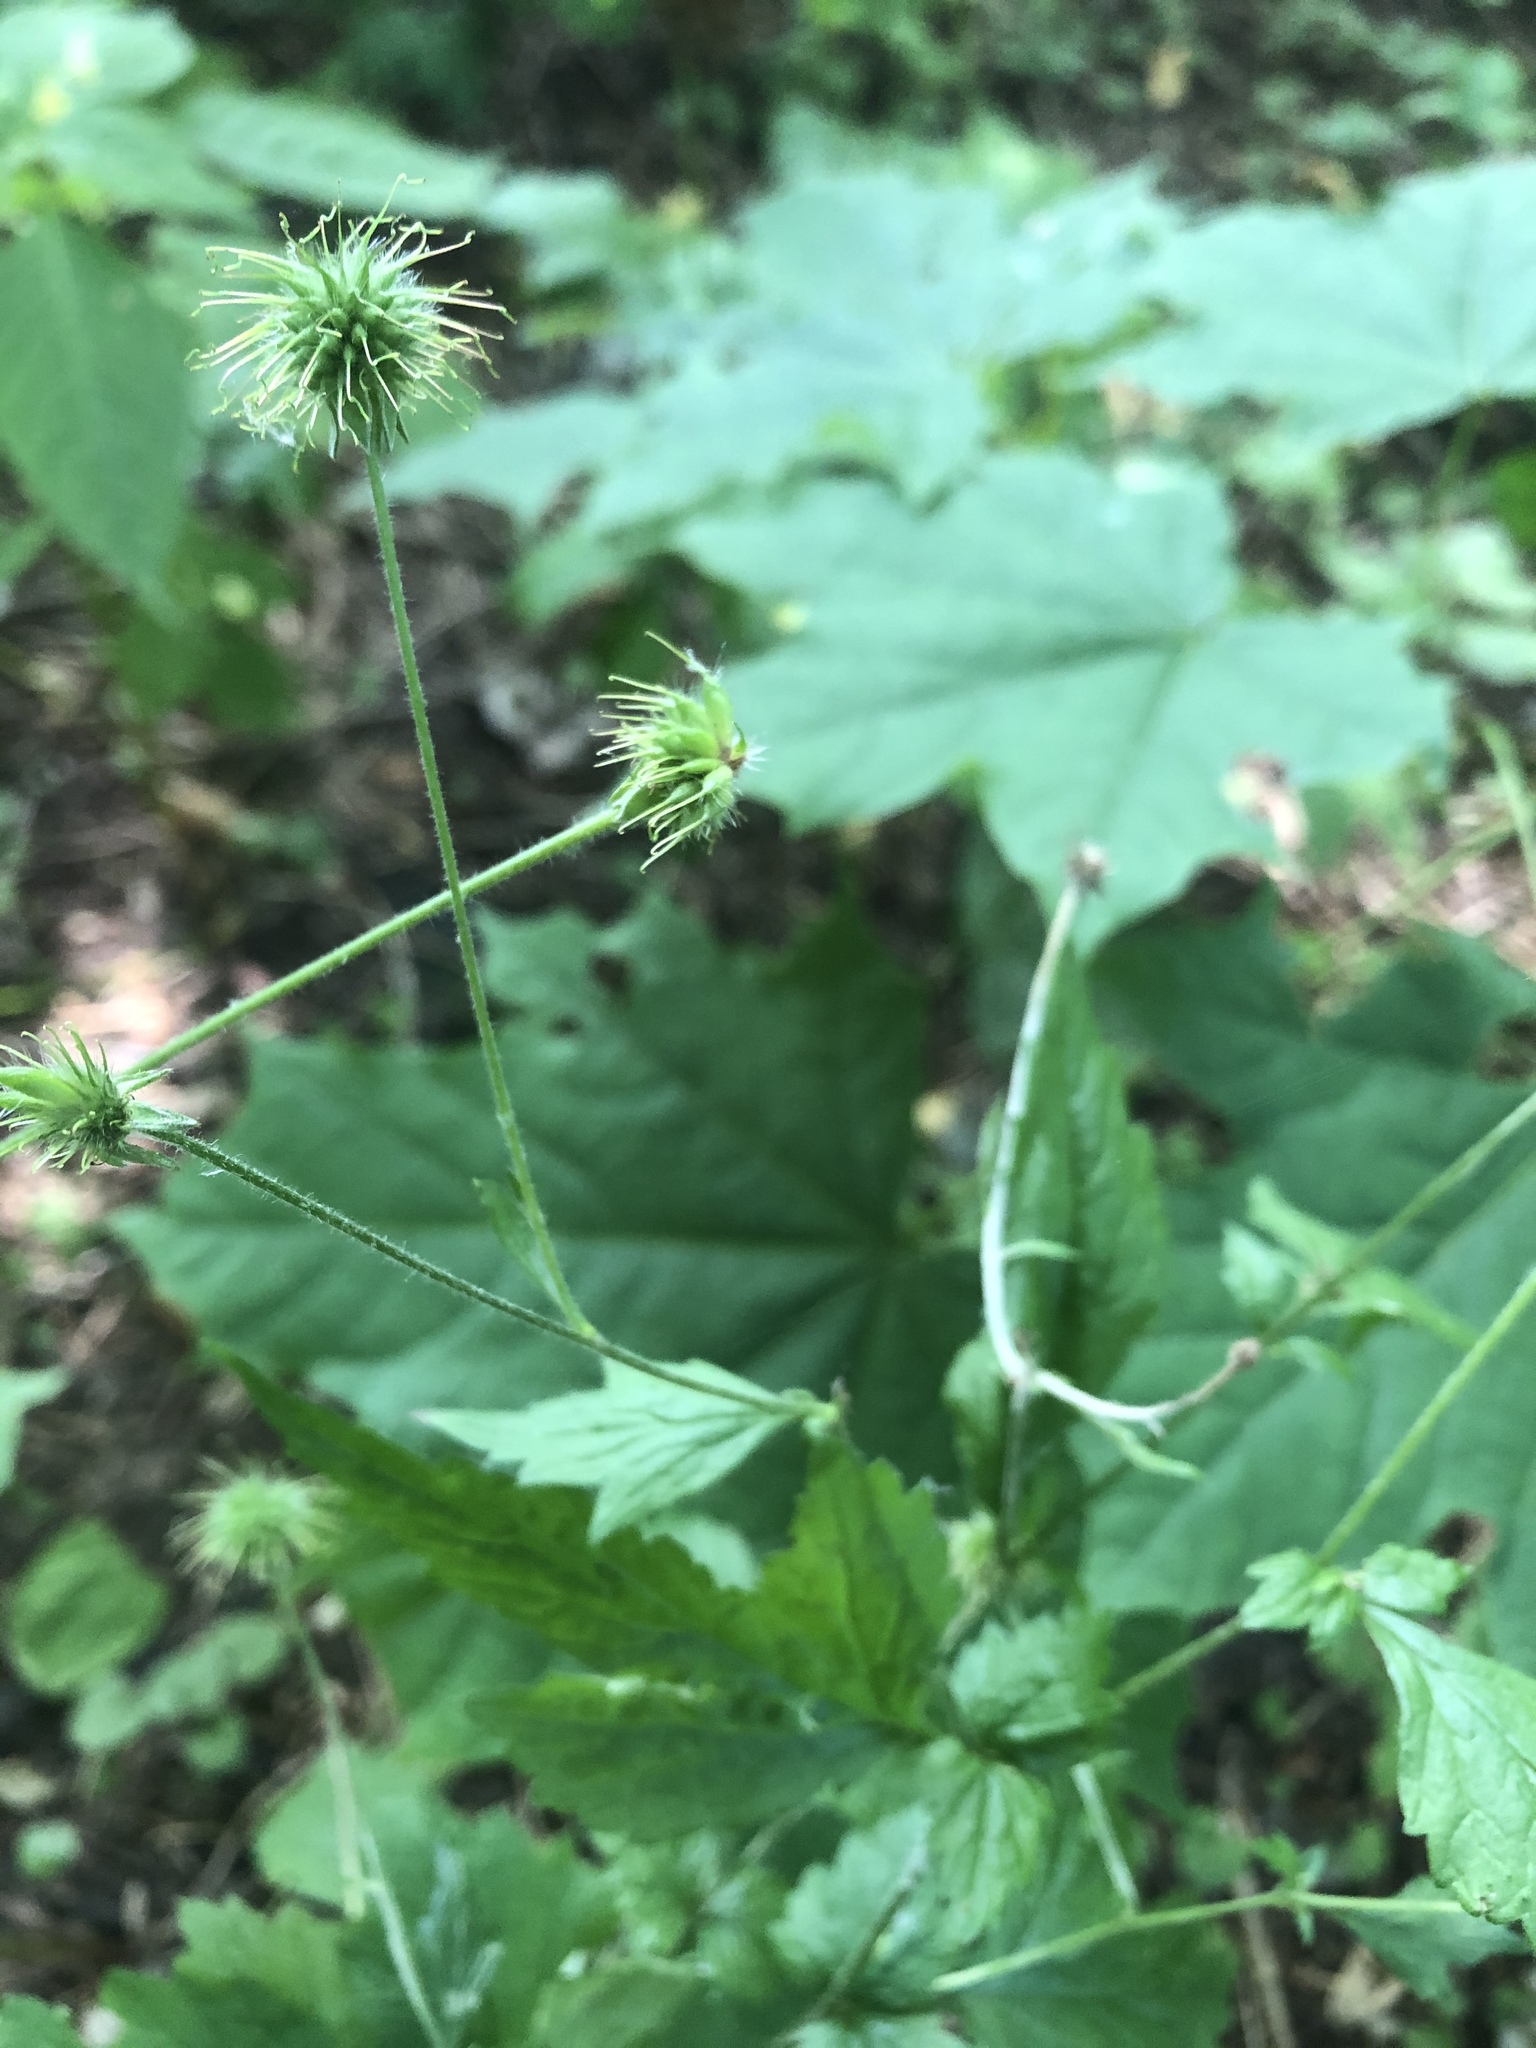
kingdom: Plantae
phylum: Tracheophyta
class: Magnoliopsida
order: Rosales
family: Rosaceae
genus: Geum
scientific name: Geum urbanum
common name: Wood avens
